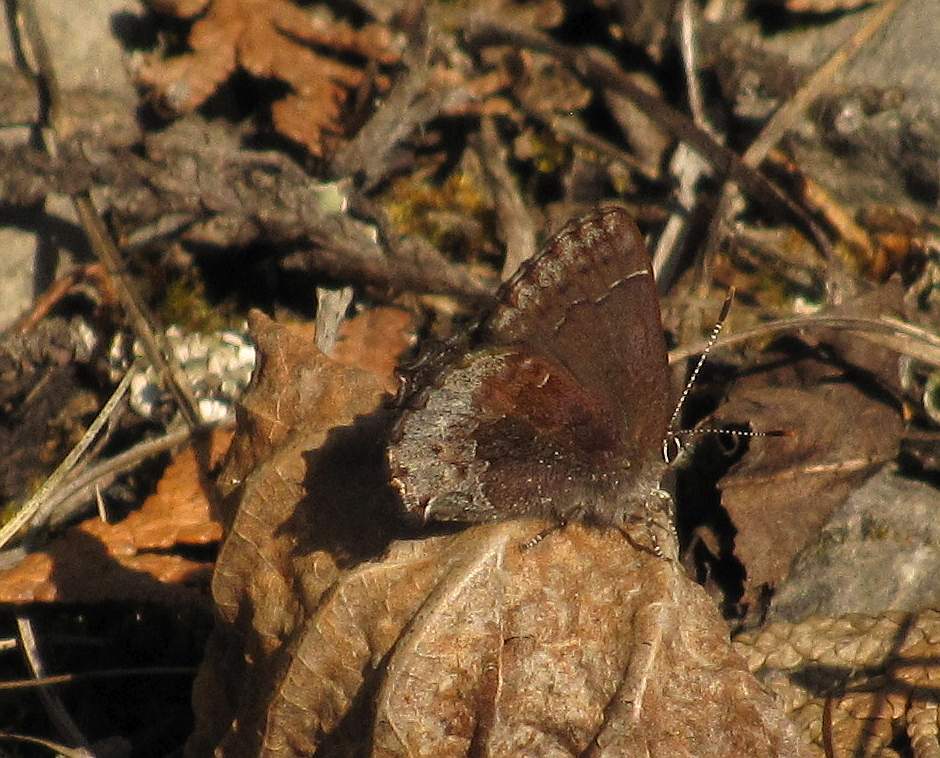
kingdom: Animalia
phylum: Arthropoda
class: Insecta
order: Lepidoptera
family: Lycaenidae
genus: Callophrys
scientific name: Callophrys polios
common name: Hoary elfin
